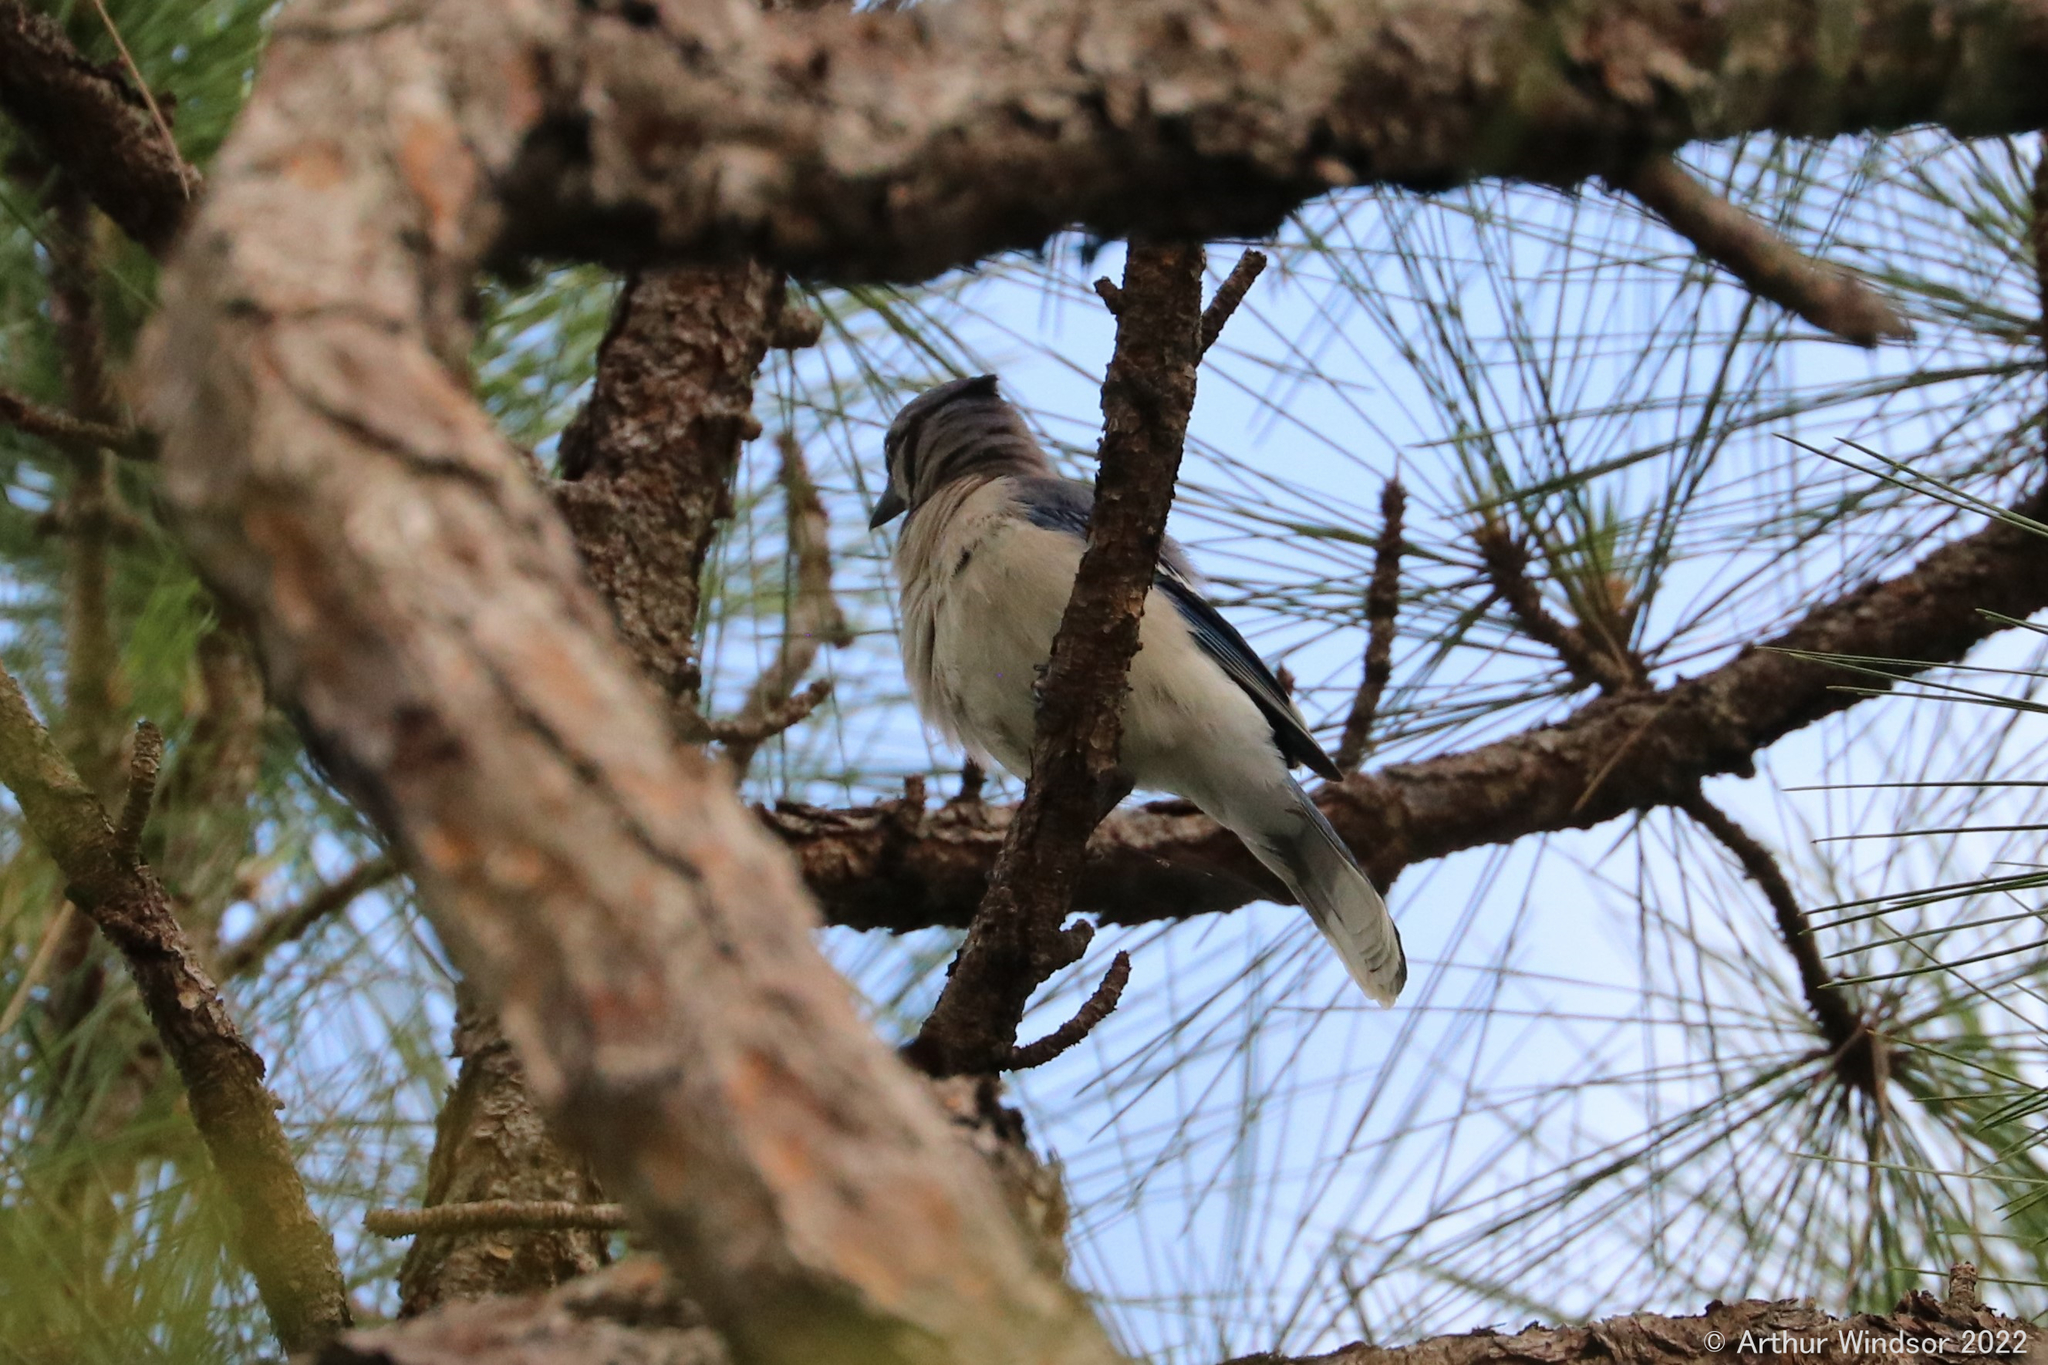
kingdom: Animalia
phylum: Chordata
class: Aves
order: Passeriformes
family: Corvidae
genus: Cyanocitta
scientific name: Cyanocitta cristata
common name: Blue jay
